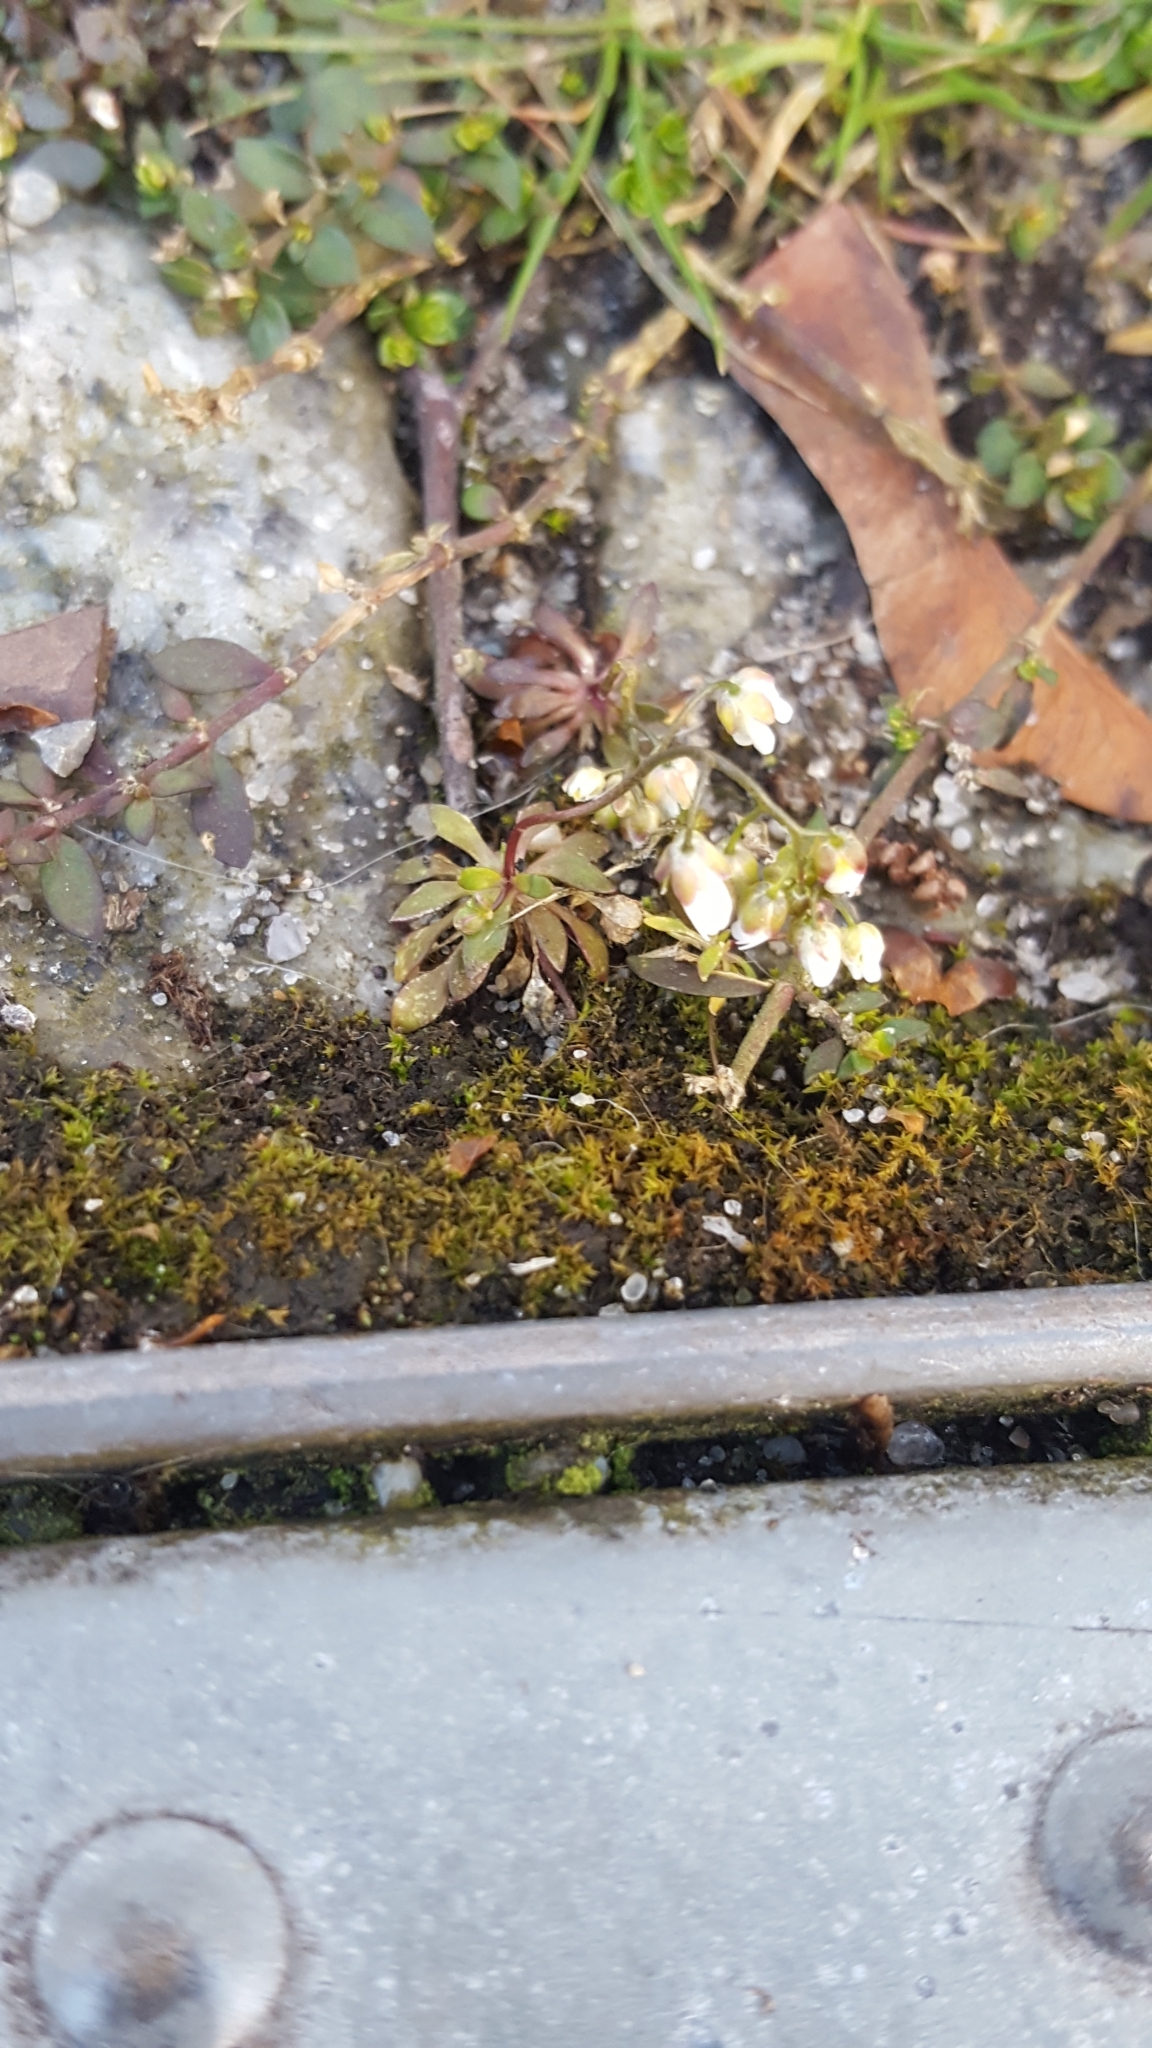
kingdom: Plantae
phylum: Tracheophyta
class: Magnoliopsida
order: Brassicales
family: Brassicaceae
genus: Draba
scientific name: Draba verna
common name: Spring draba
